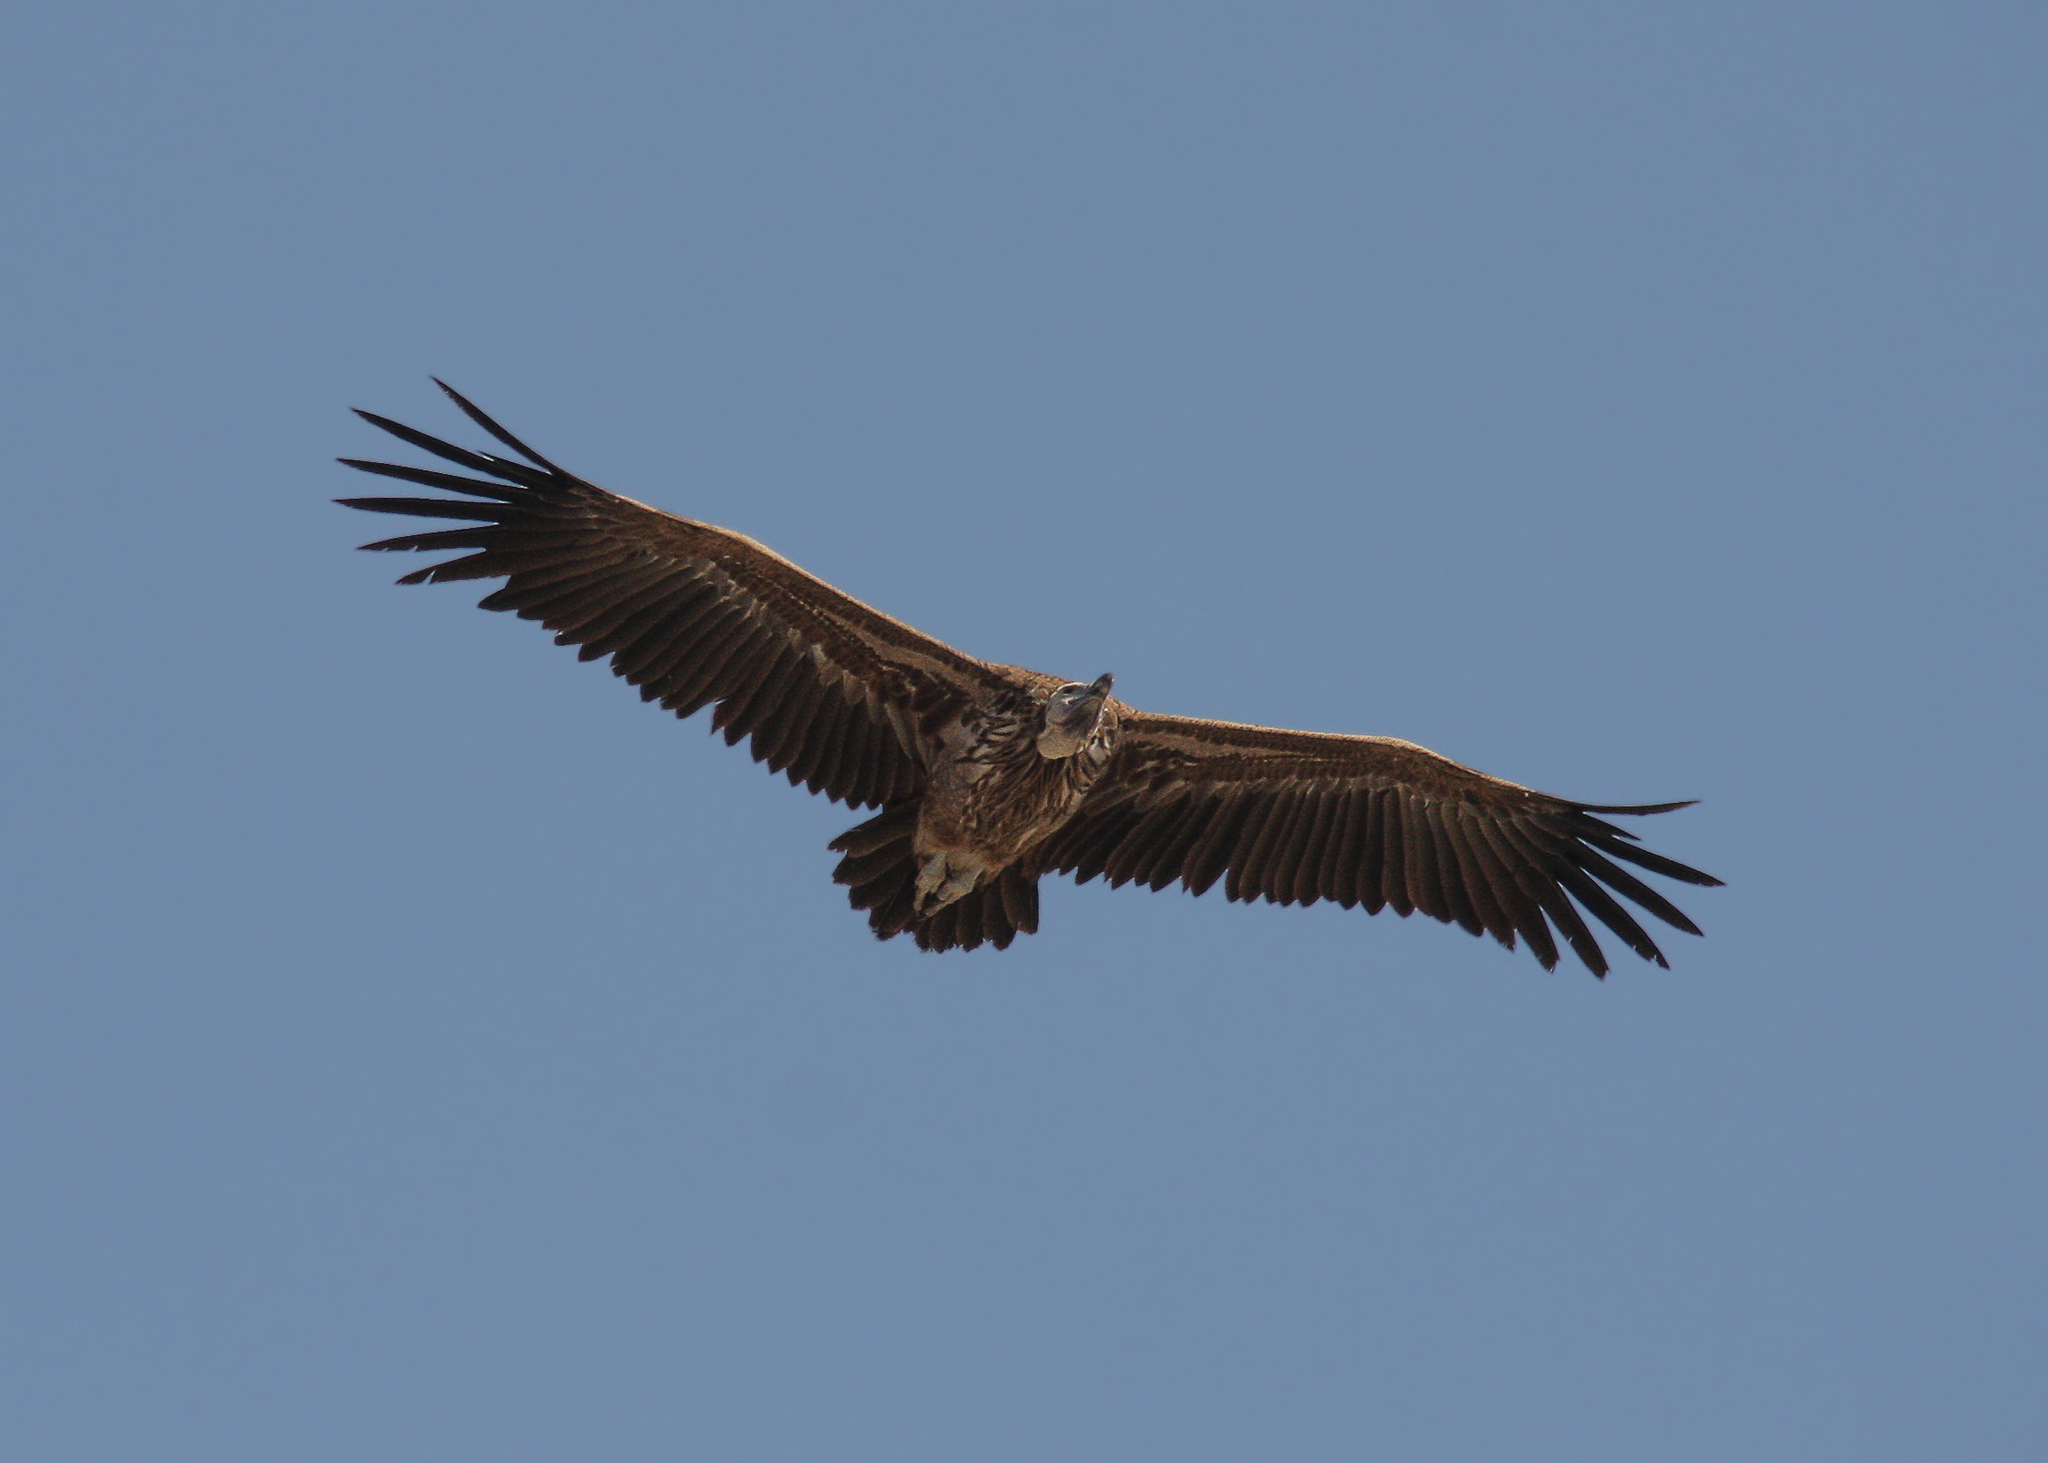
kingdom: Animalia
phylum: Chordata
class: Aves
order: Accipitriformes
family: Accipitridae
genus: Torgos
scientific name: Torgos tracheliotos
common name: Lappet-faced vulture
